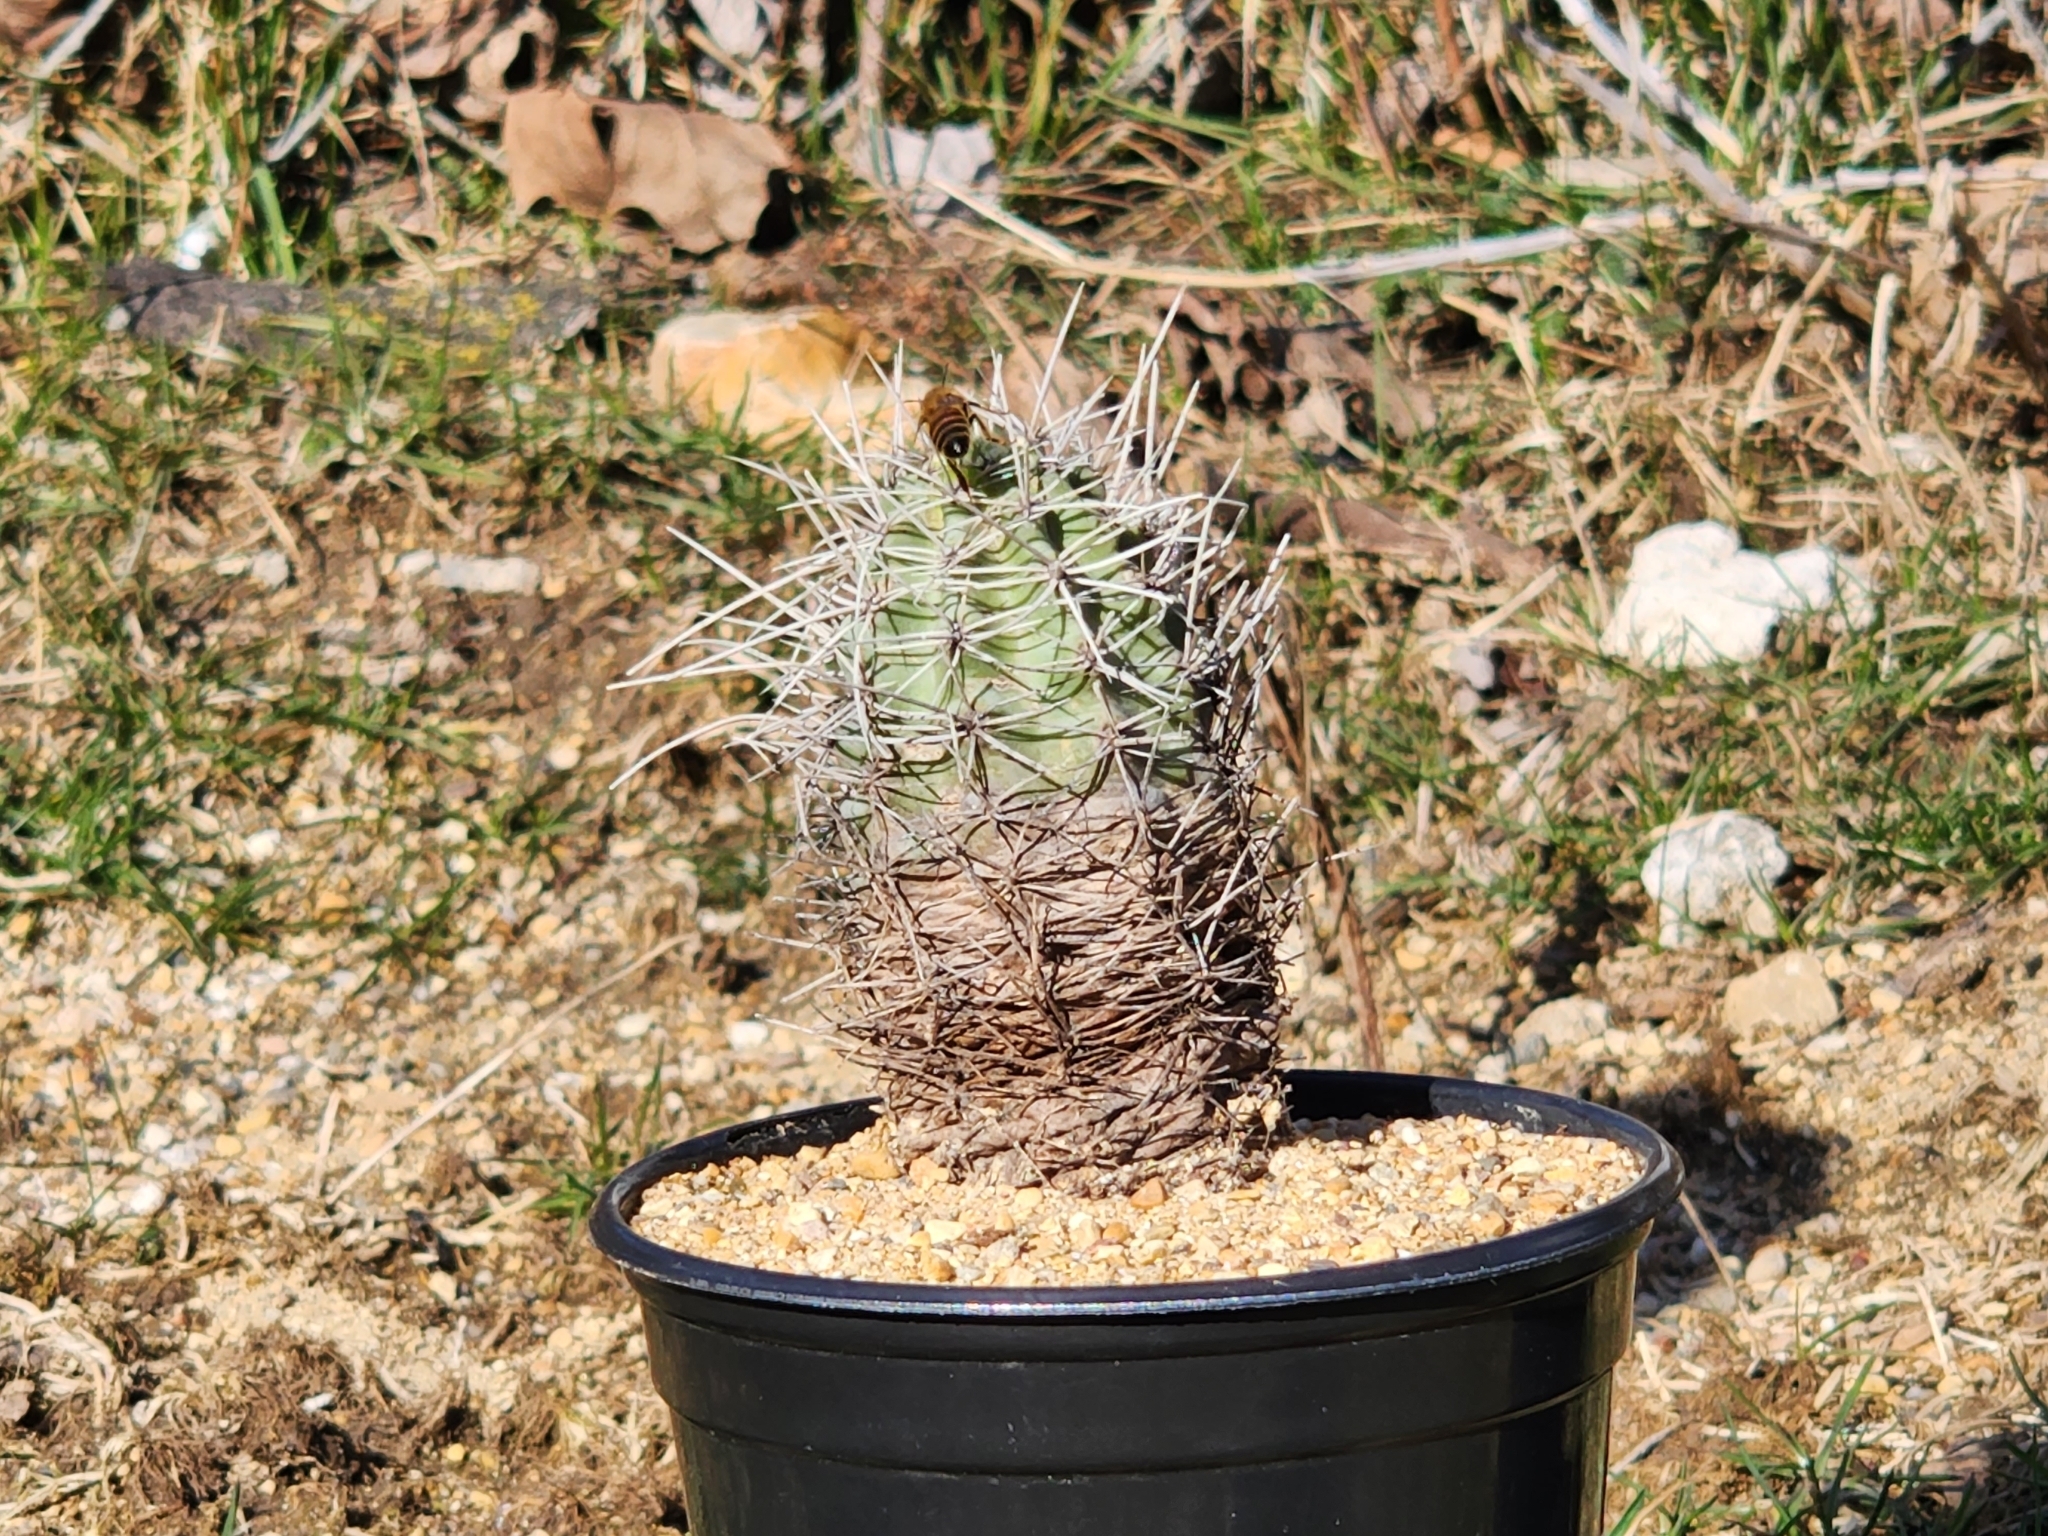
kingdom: Animalia
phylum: Arthropoda
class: Insecta
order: Hymenoptera
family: Apidae
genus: Apis
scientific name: Apis mellifera
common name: Honey bee
